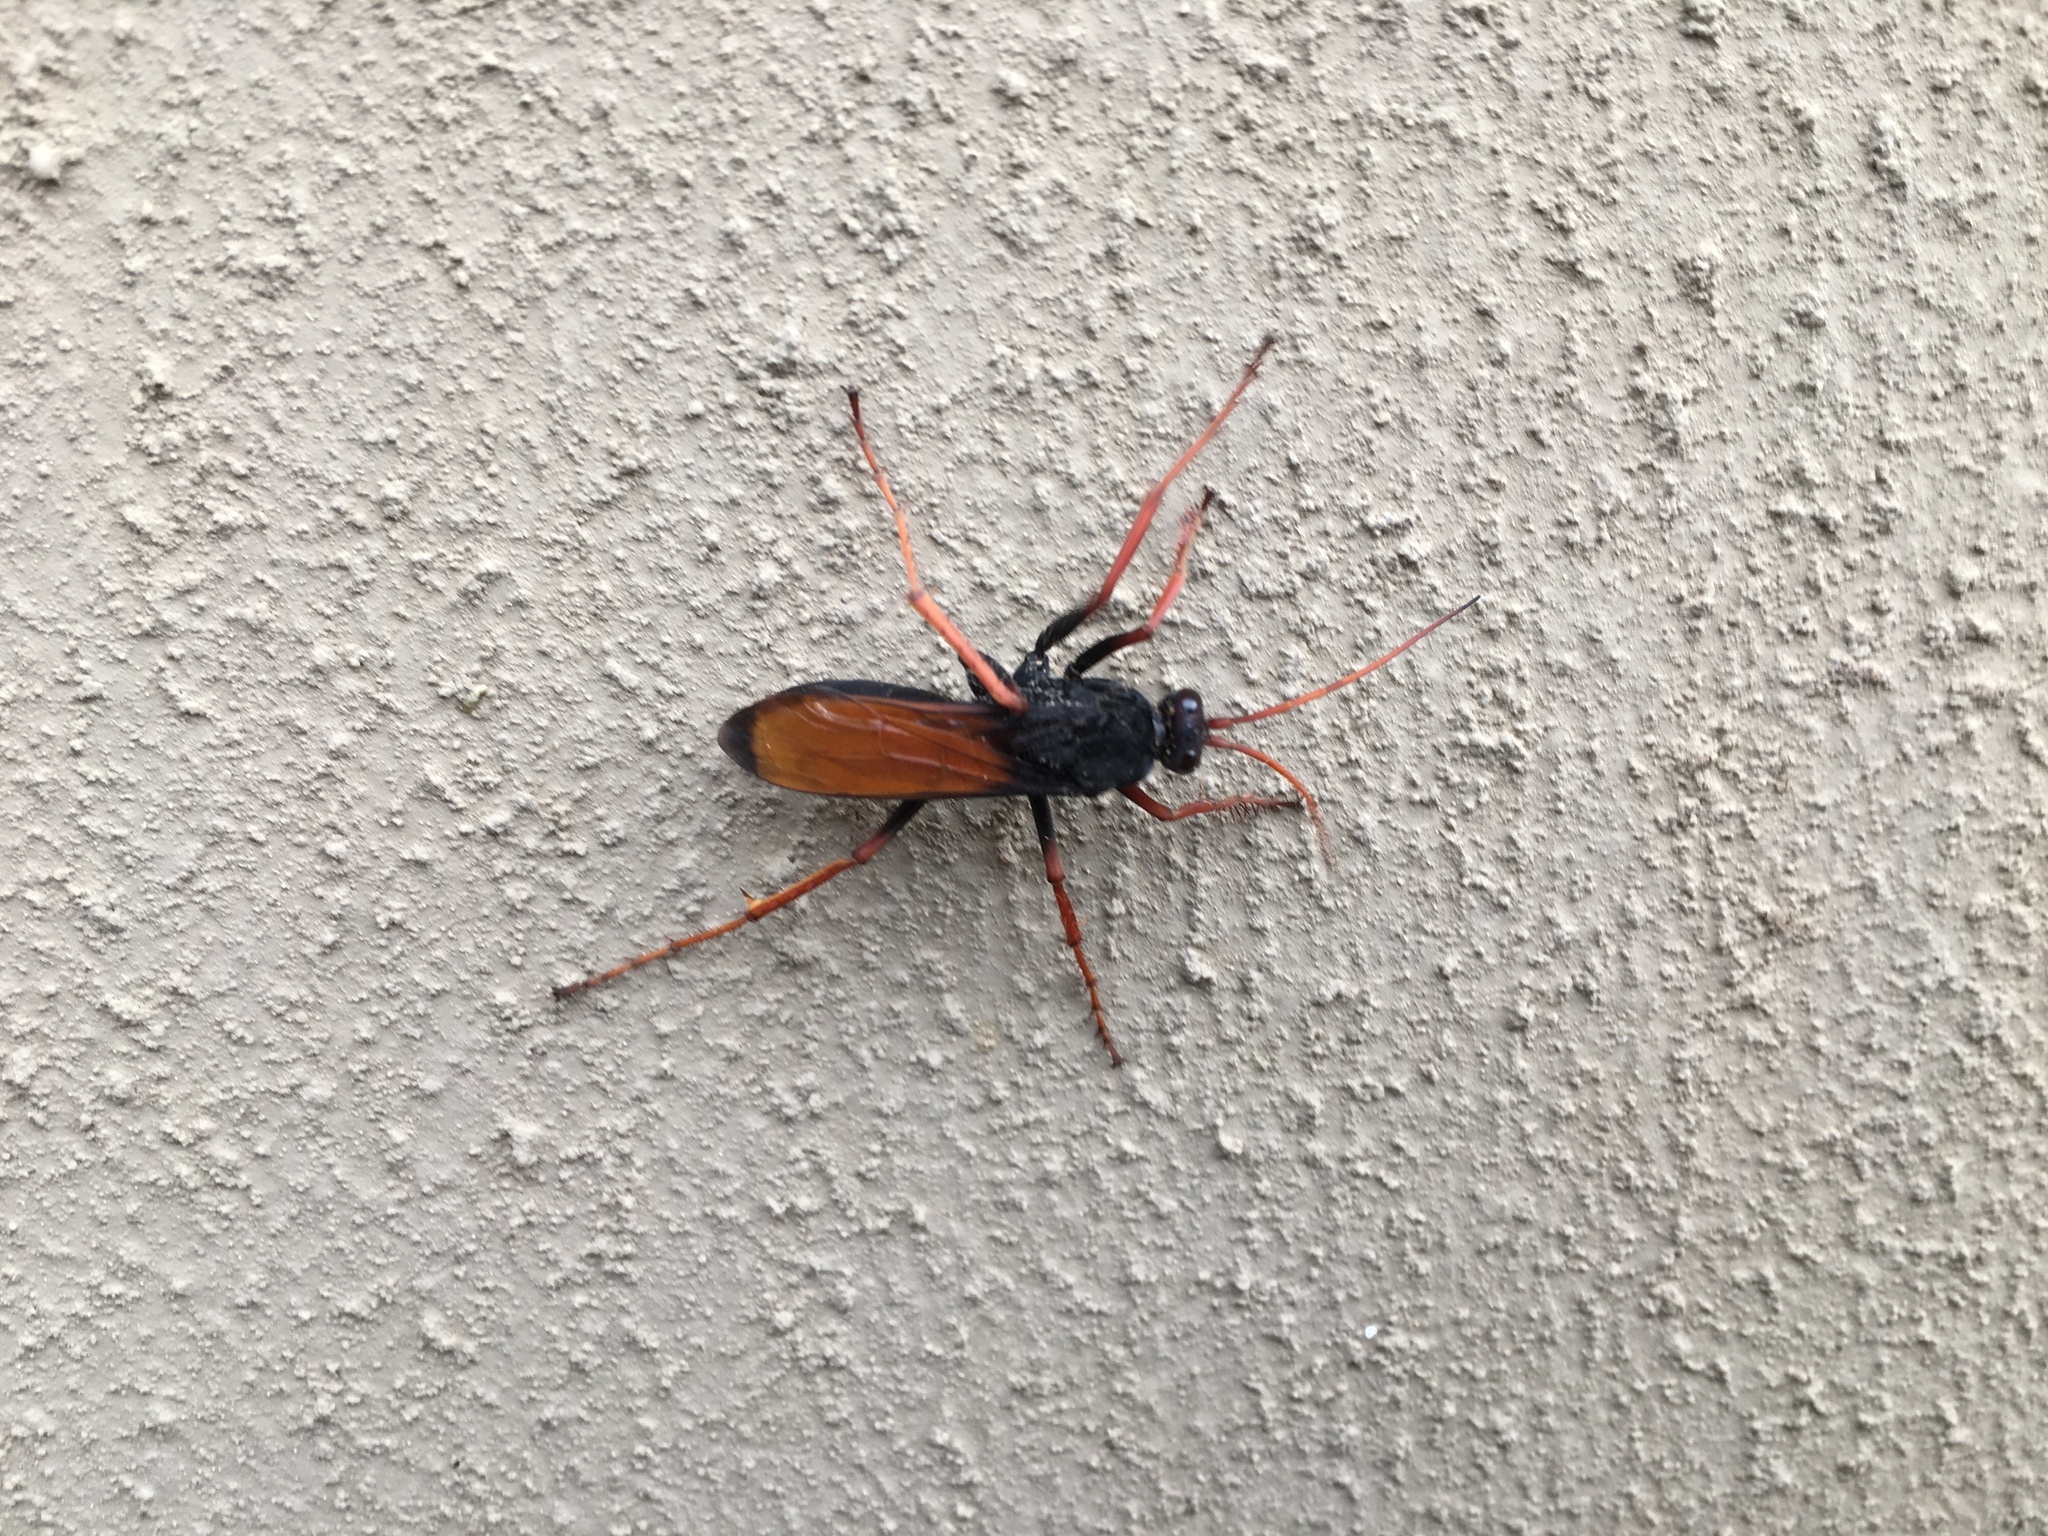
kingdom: Animalia
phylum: Arthropoda
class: Insecta
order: Hymenoptera
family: Pompilidae
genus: Hemipepsis
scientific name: Hemipepsis capensis
